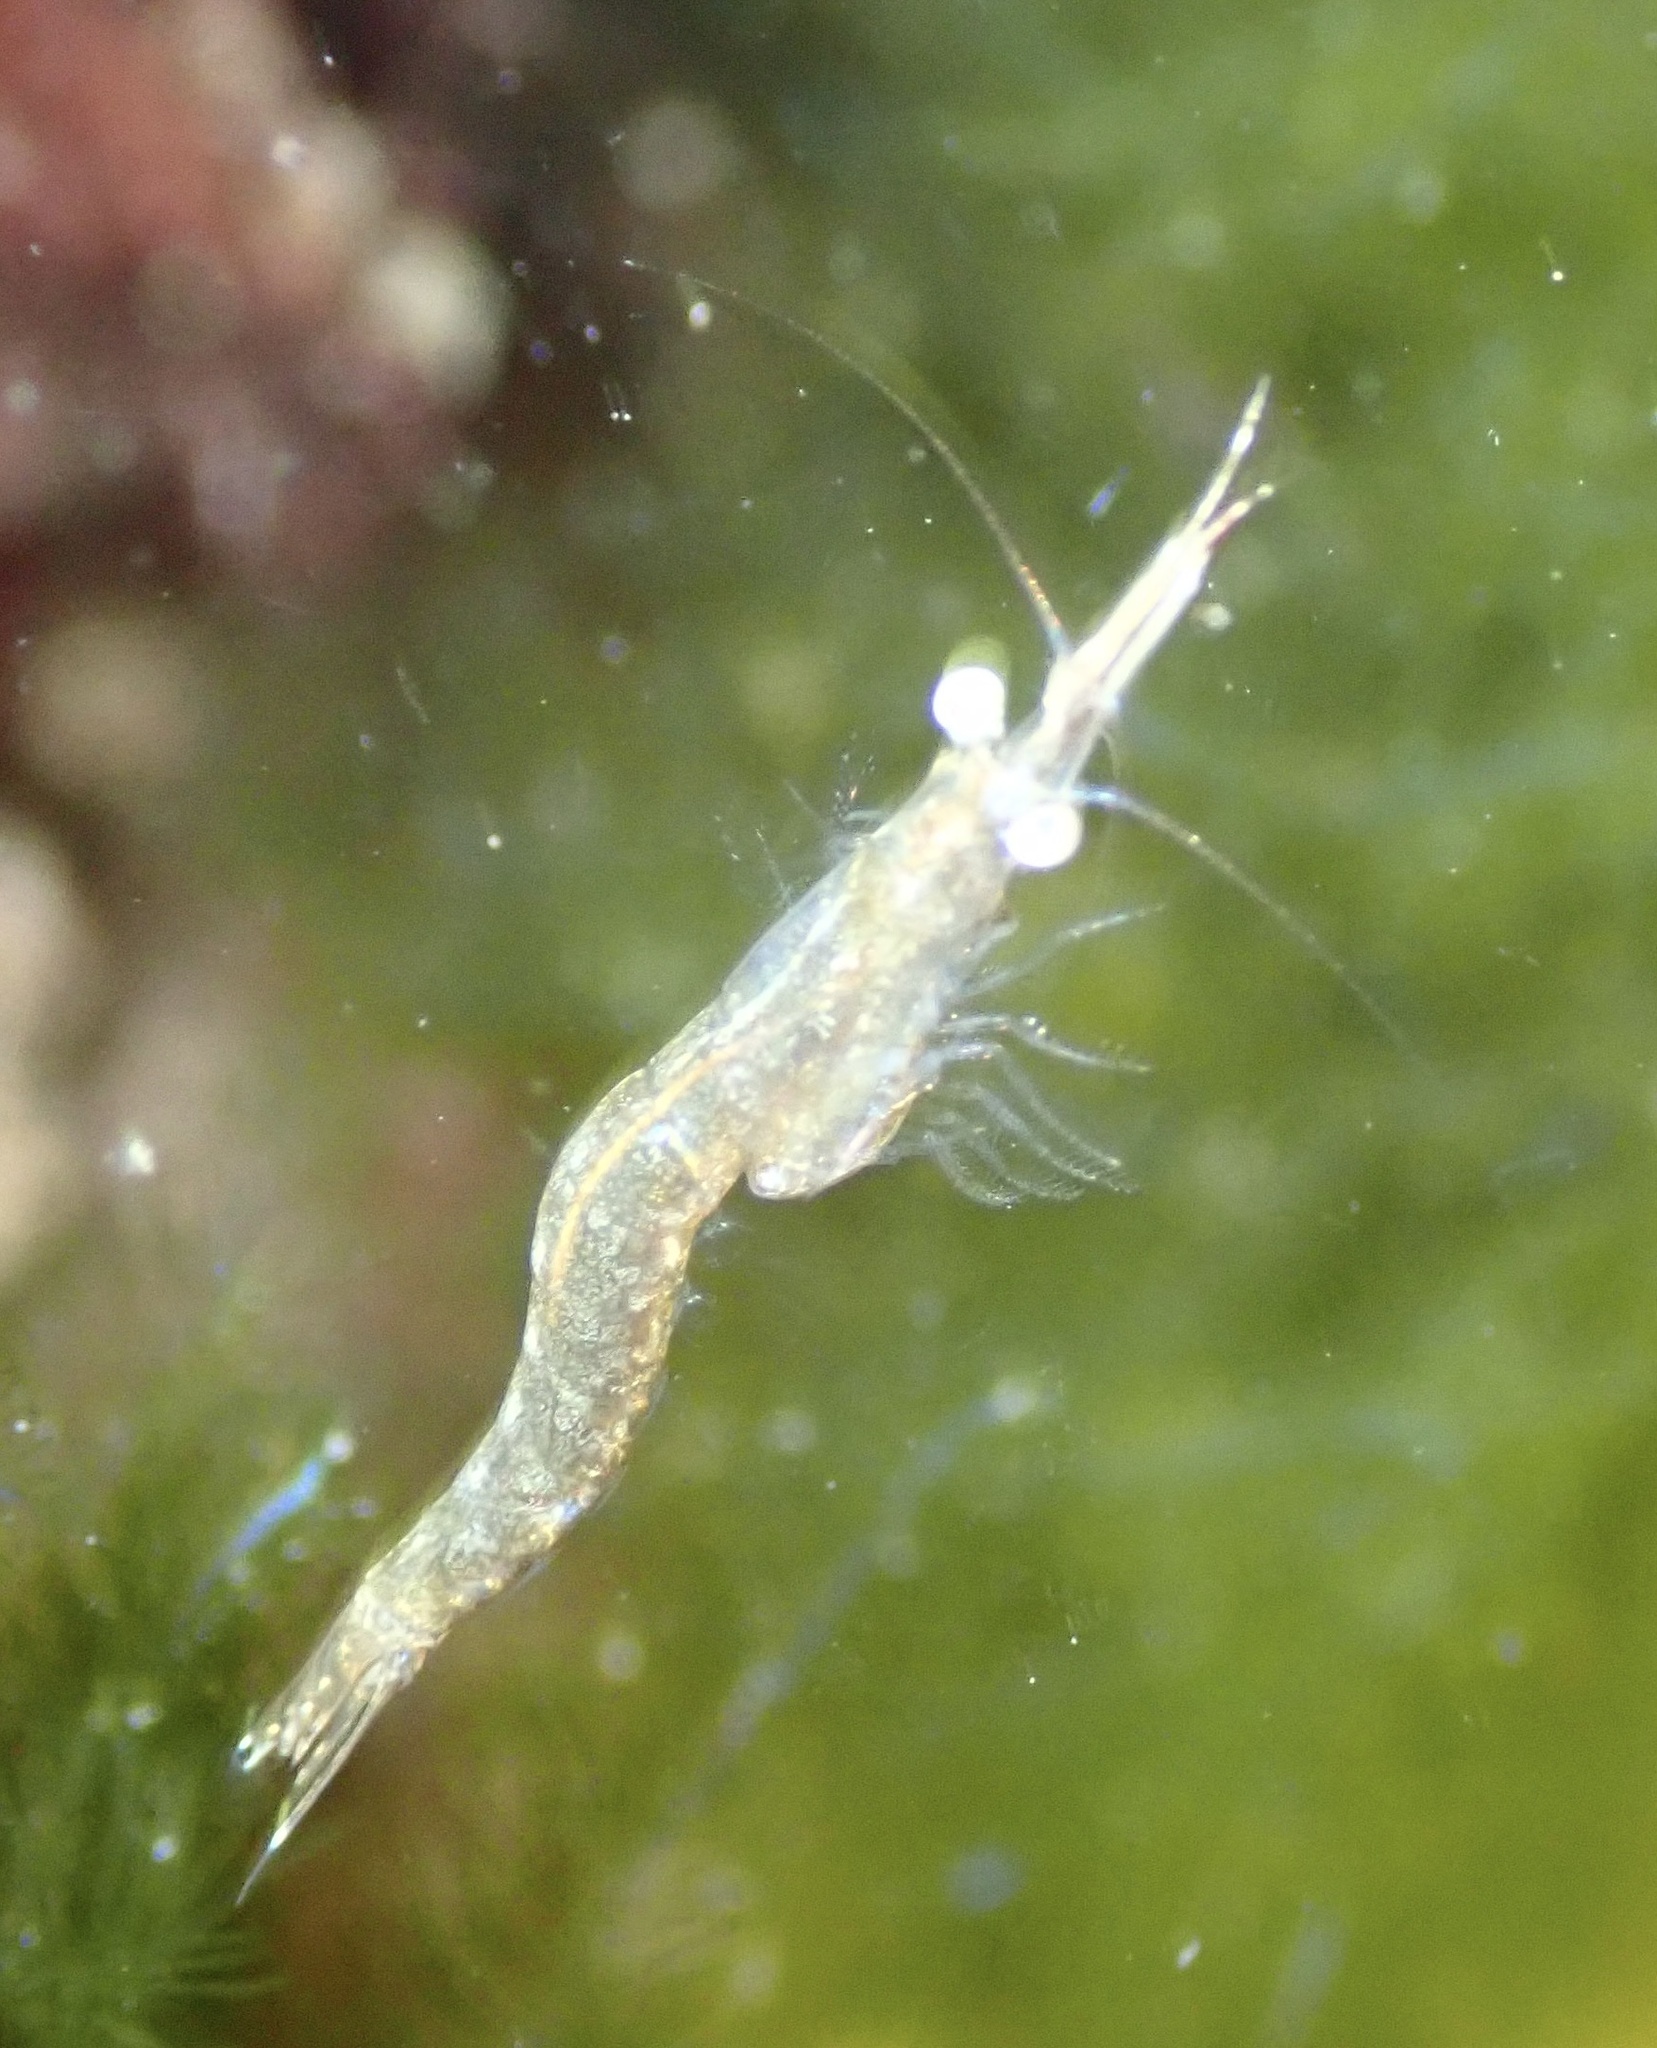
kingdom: Animalia
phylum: Arthropoda
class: Malacostraca
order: Mysida
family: Mysidae
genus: Praunus
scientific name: Praunus flexuosus
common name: Chameleon shrimp
